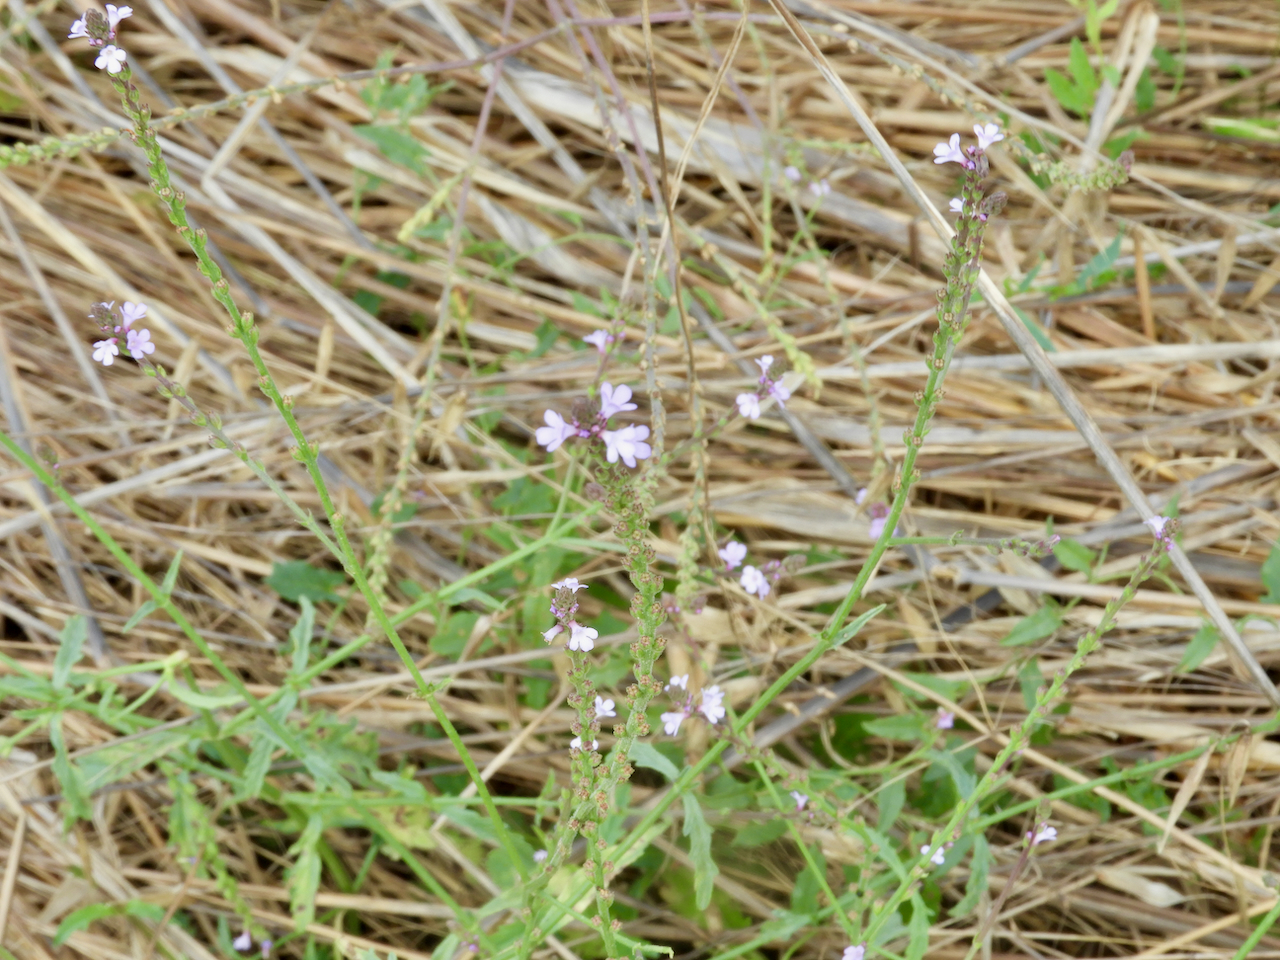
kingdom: Plantae
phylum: Tracheophyta
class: Magnoliopsida
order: Lamiales
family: Verbenaceae
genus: Verbena
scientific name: Verbena officinalis
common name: Vervain
